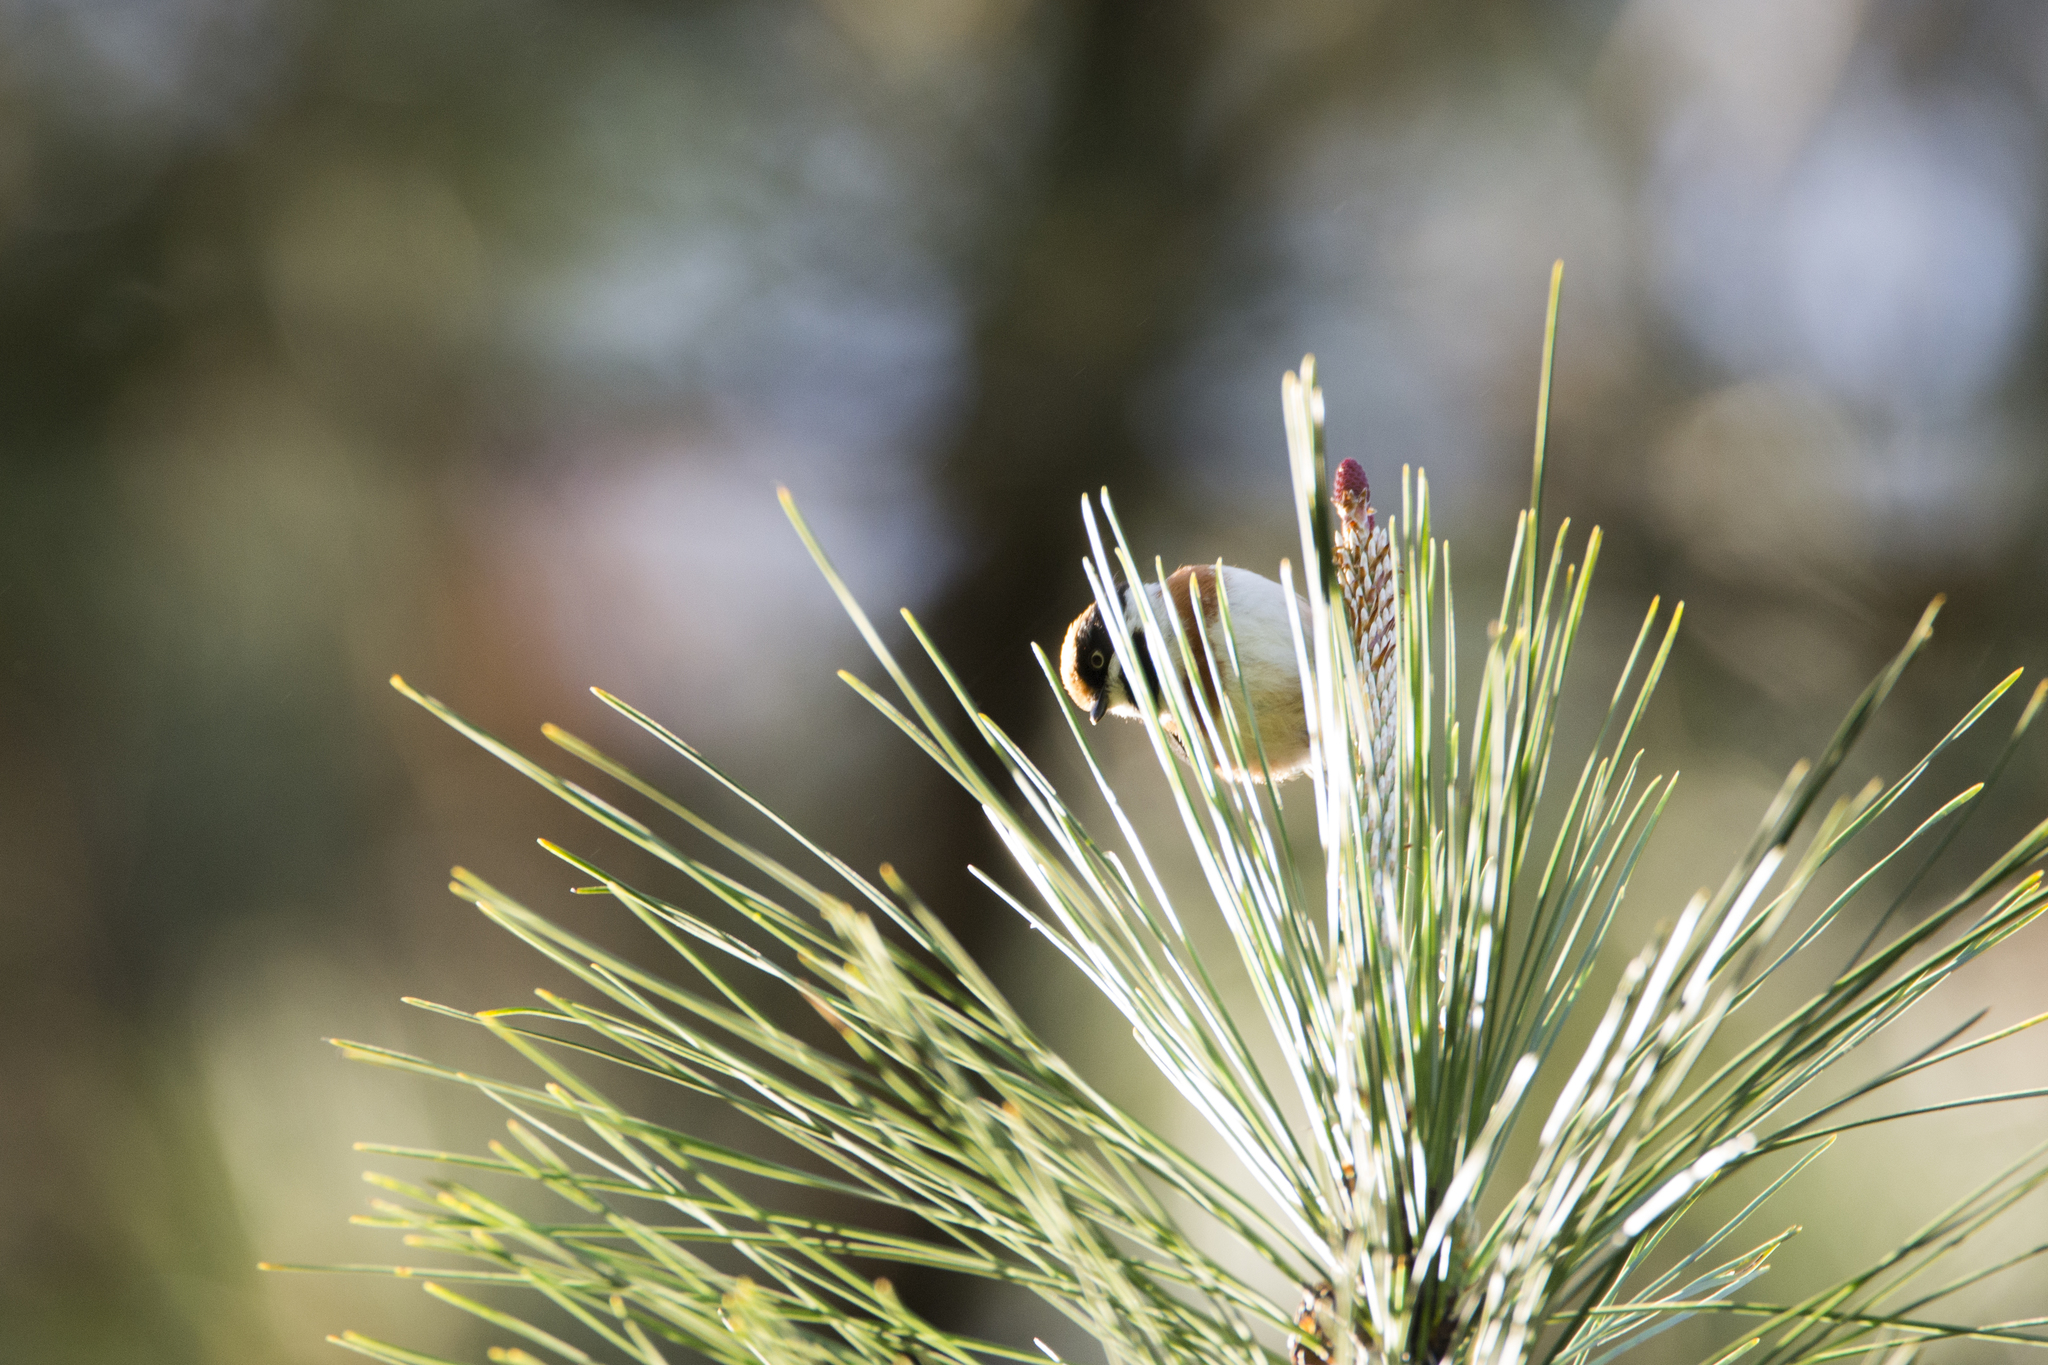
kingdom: Animalia
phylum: Chordata
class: Aves
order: Passeriformes
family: Aegithalidae
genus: Aegithalos
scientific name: Aegithalos concinnus
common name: Black-throated bushtit
